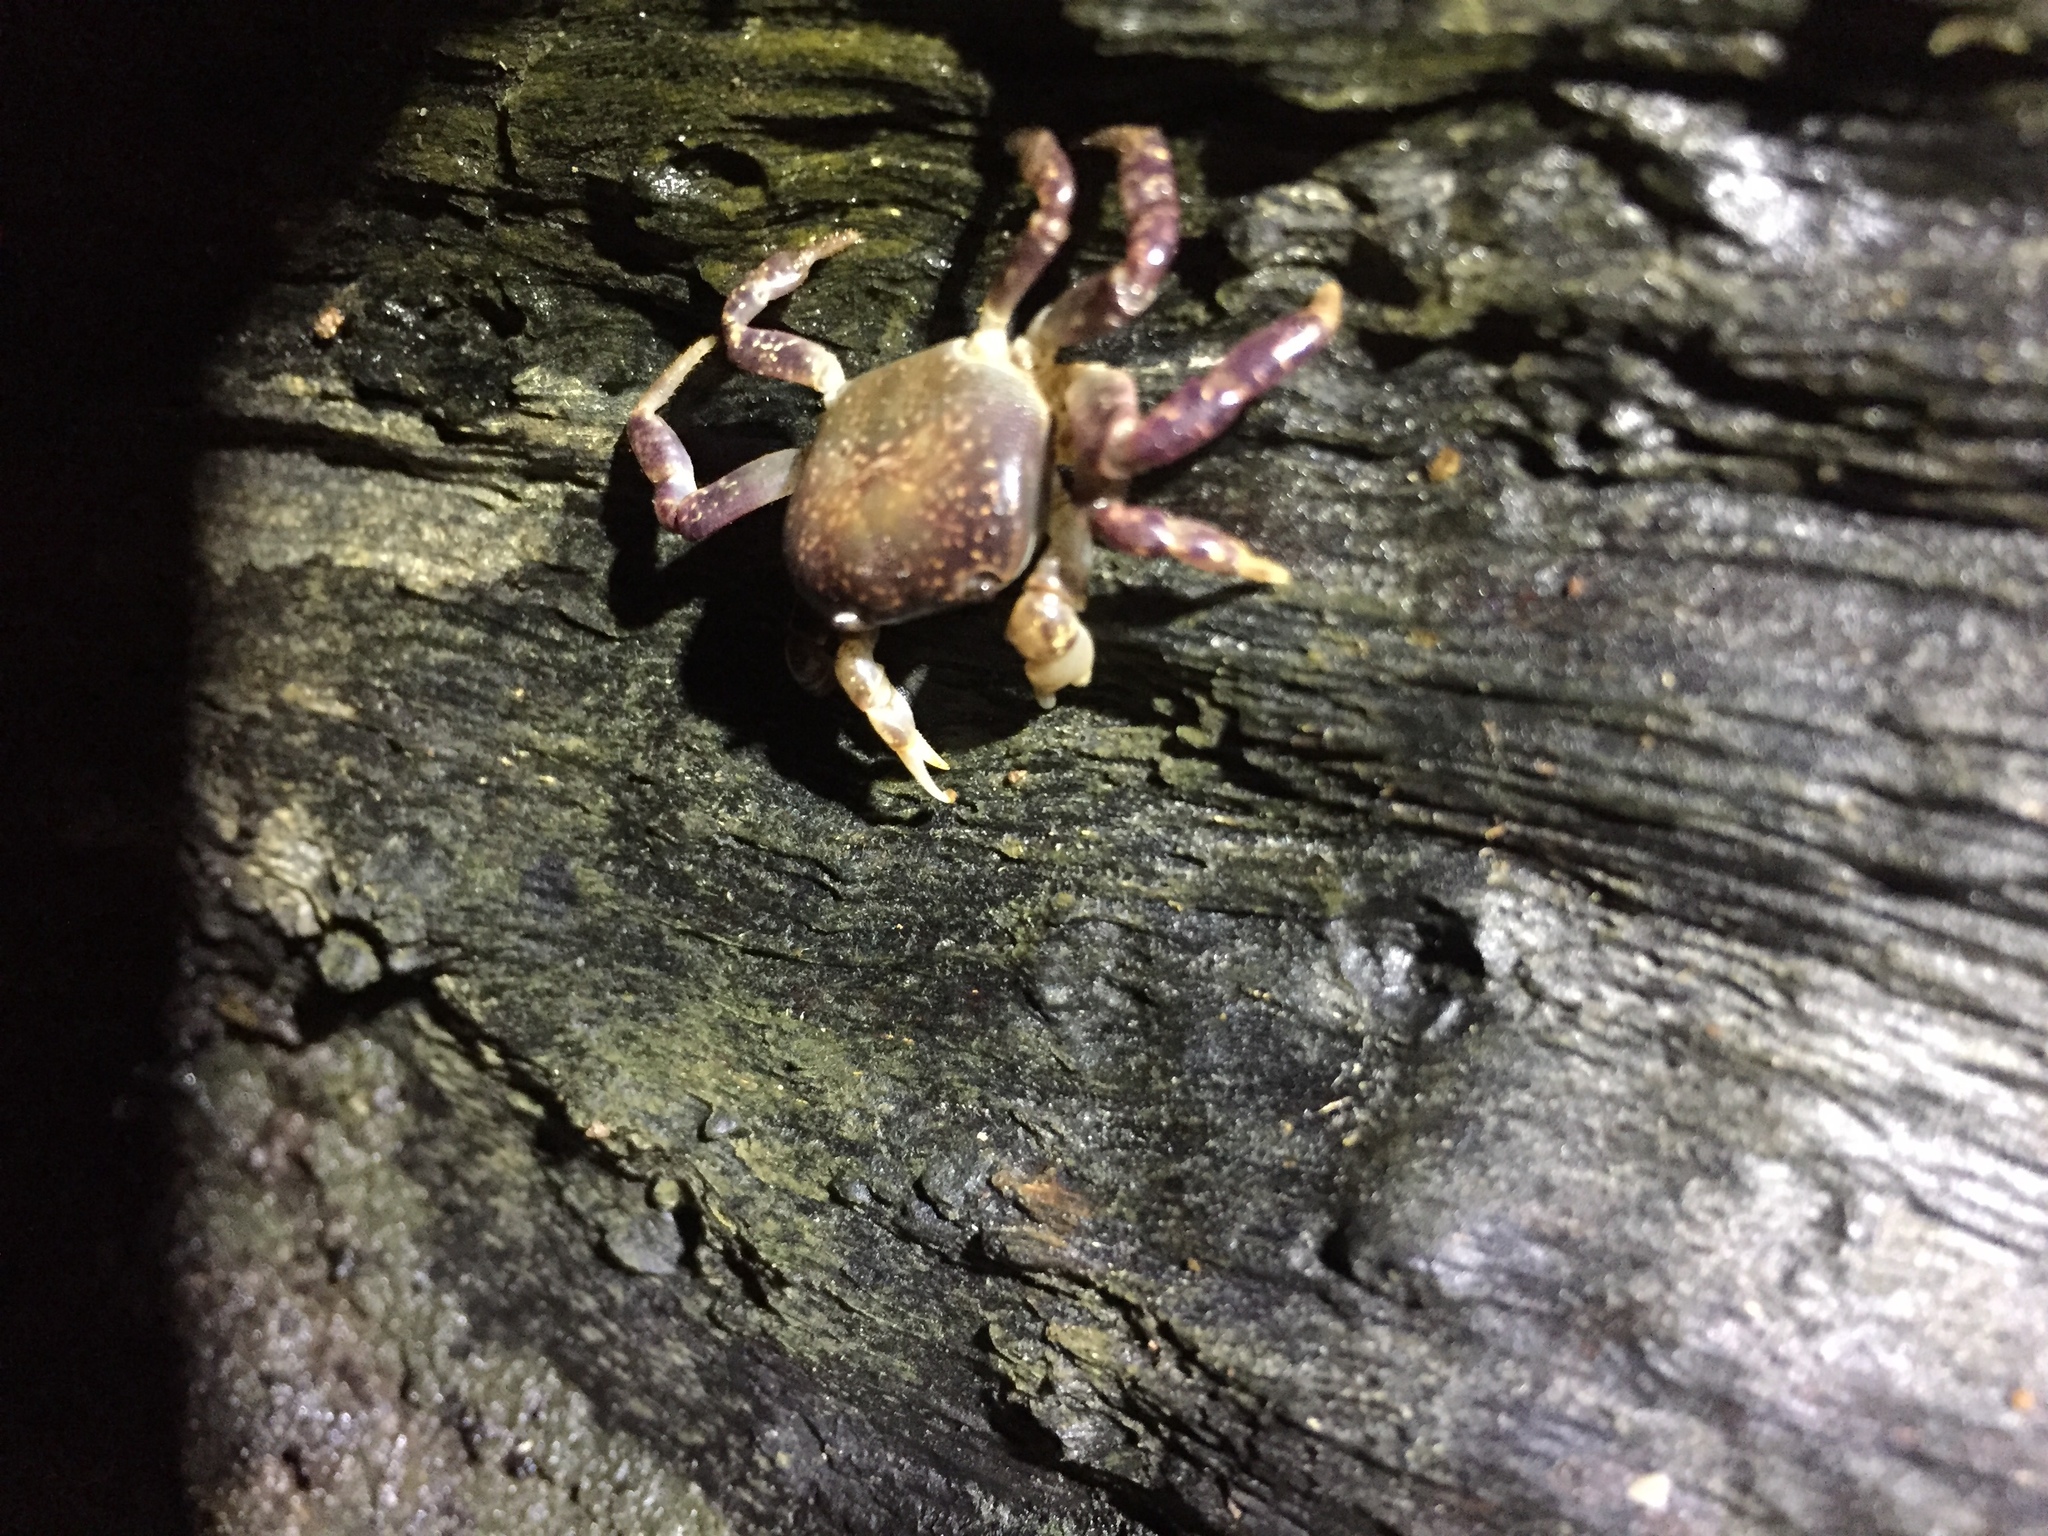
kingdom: Animalia
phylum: Arthropoda
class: Malacostraca
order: Decapoda
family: Gecarcinidae
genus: Epigrapsus
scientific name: Epigrapsus politus
